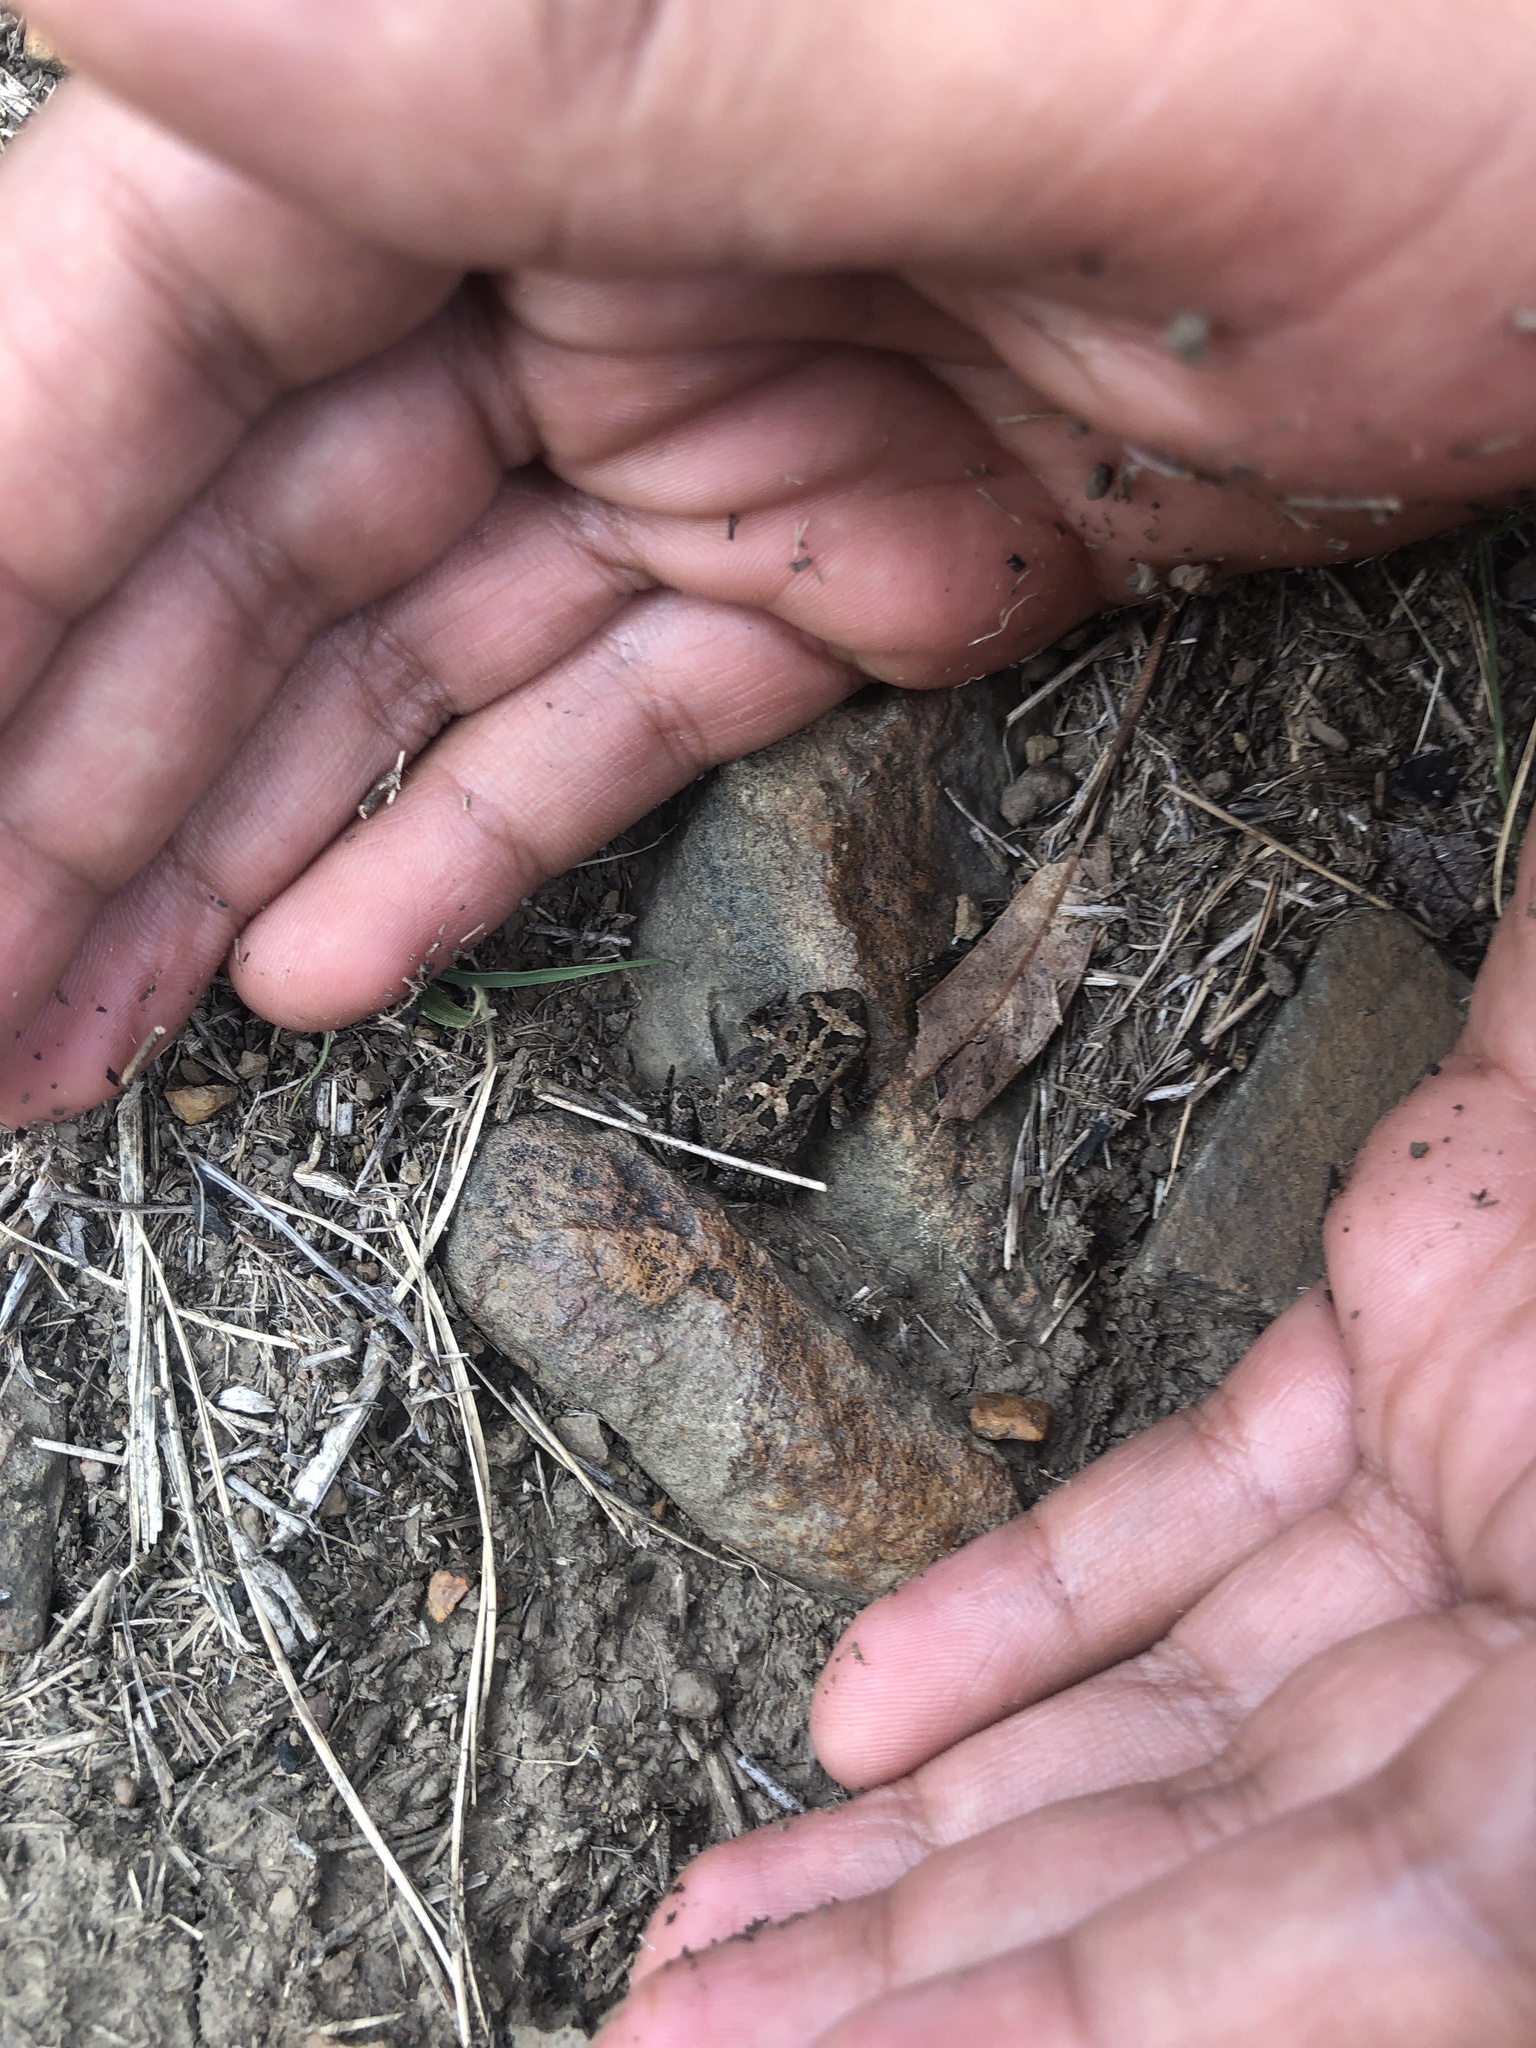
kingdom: Animalia
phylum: Chordata
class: Amphibia
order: Anura
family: Bufonidae
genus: Sclerophrys
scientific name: Sclerophrys gutturalis
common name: African common toad
